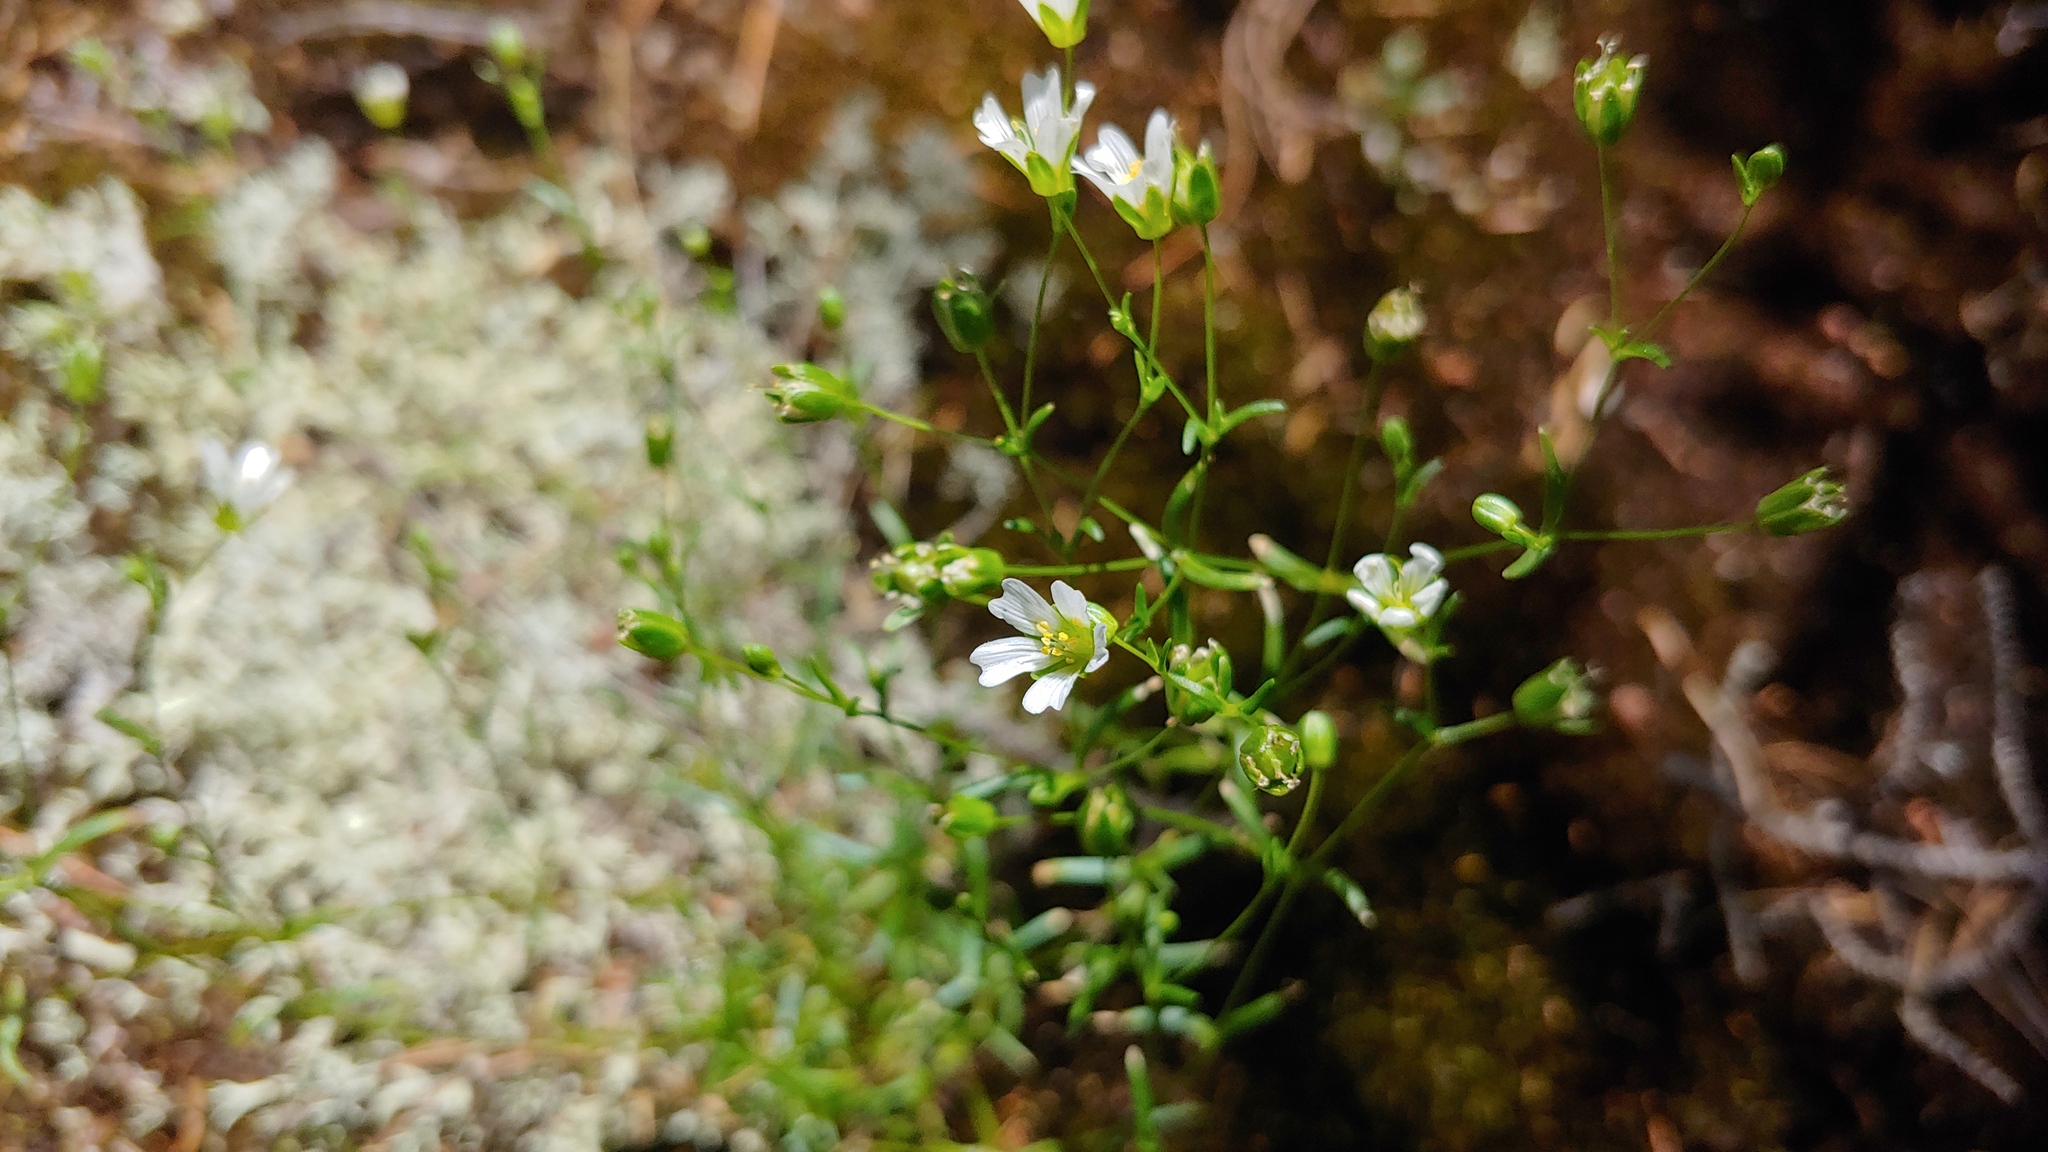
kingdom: Plantae
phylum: Tracheophyta
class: Magnoliopsida
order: Caryophyllales
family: Caryophyllaceae
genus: Geocarpon
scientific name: Geocarpon groenlandicum
